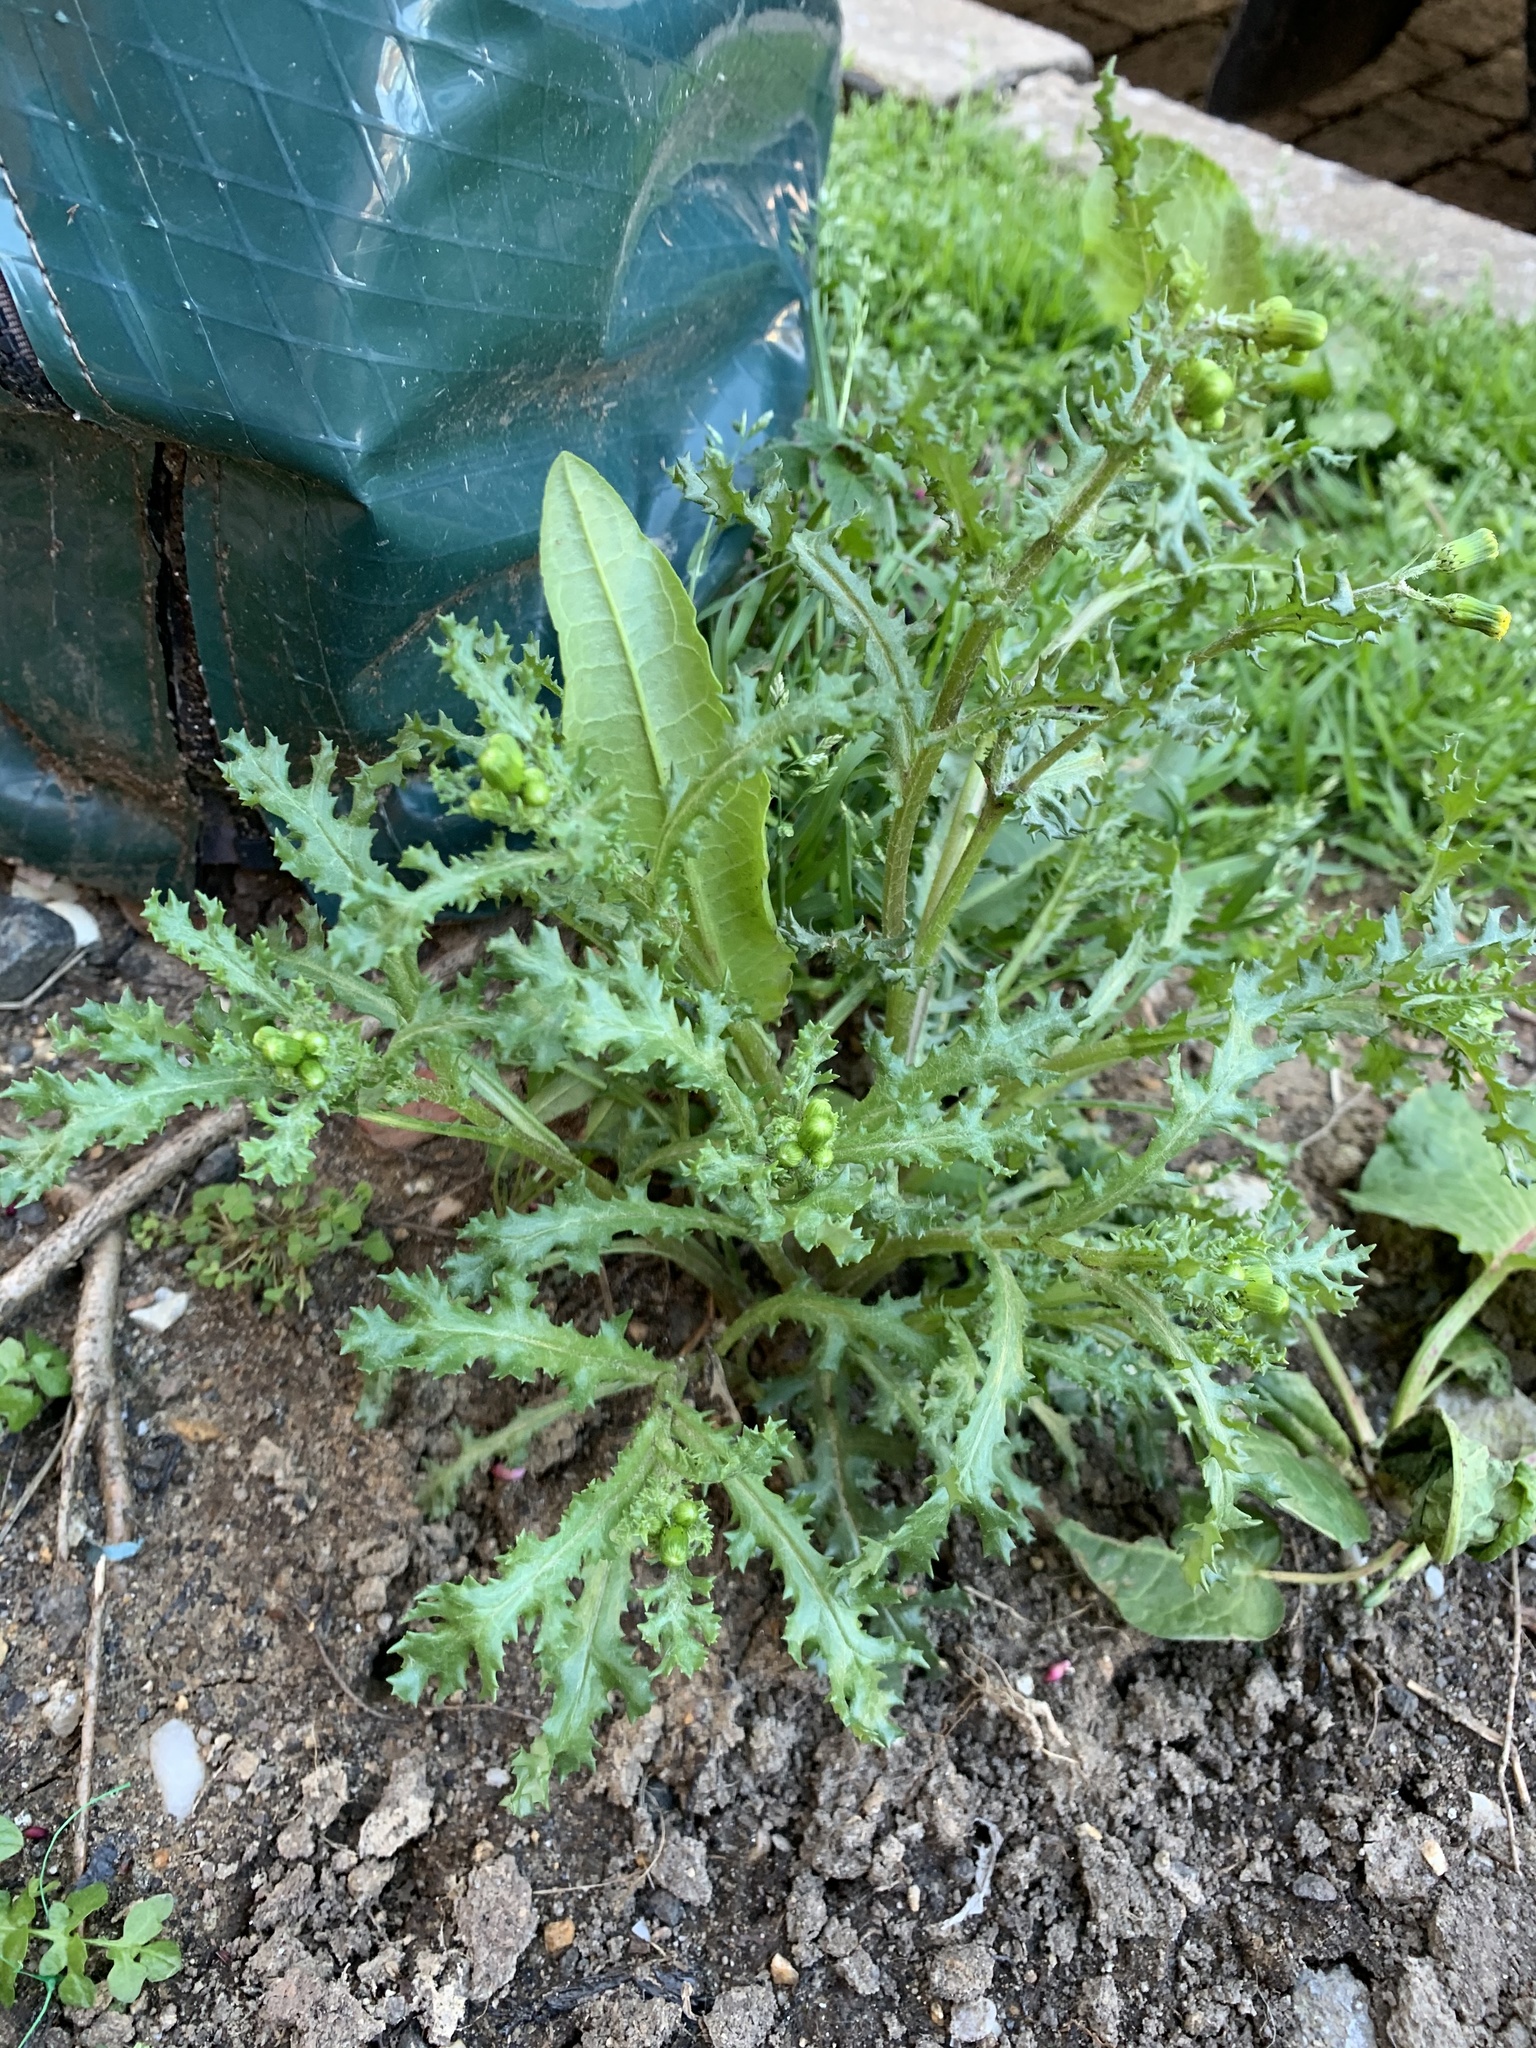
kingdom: Plantae
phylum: Tracheophyta
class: Magnoliopsida
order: Asterales
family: Asteraceae
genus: Senecio
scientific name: Senecio vulgaris
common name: Old-man-in-the-spring
